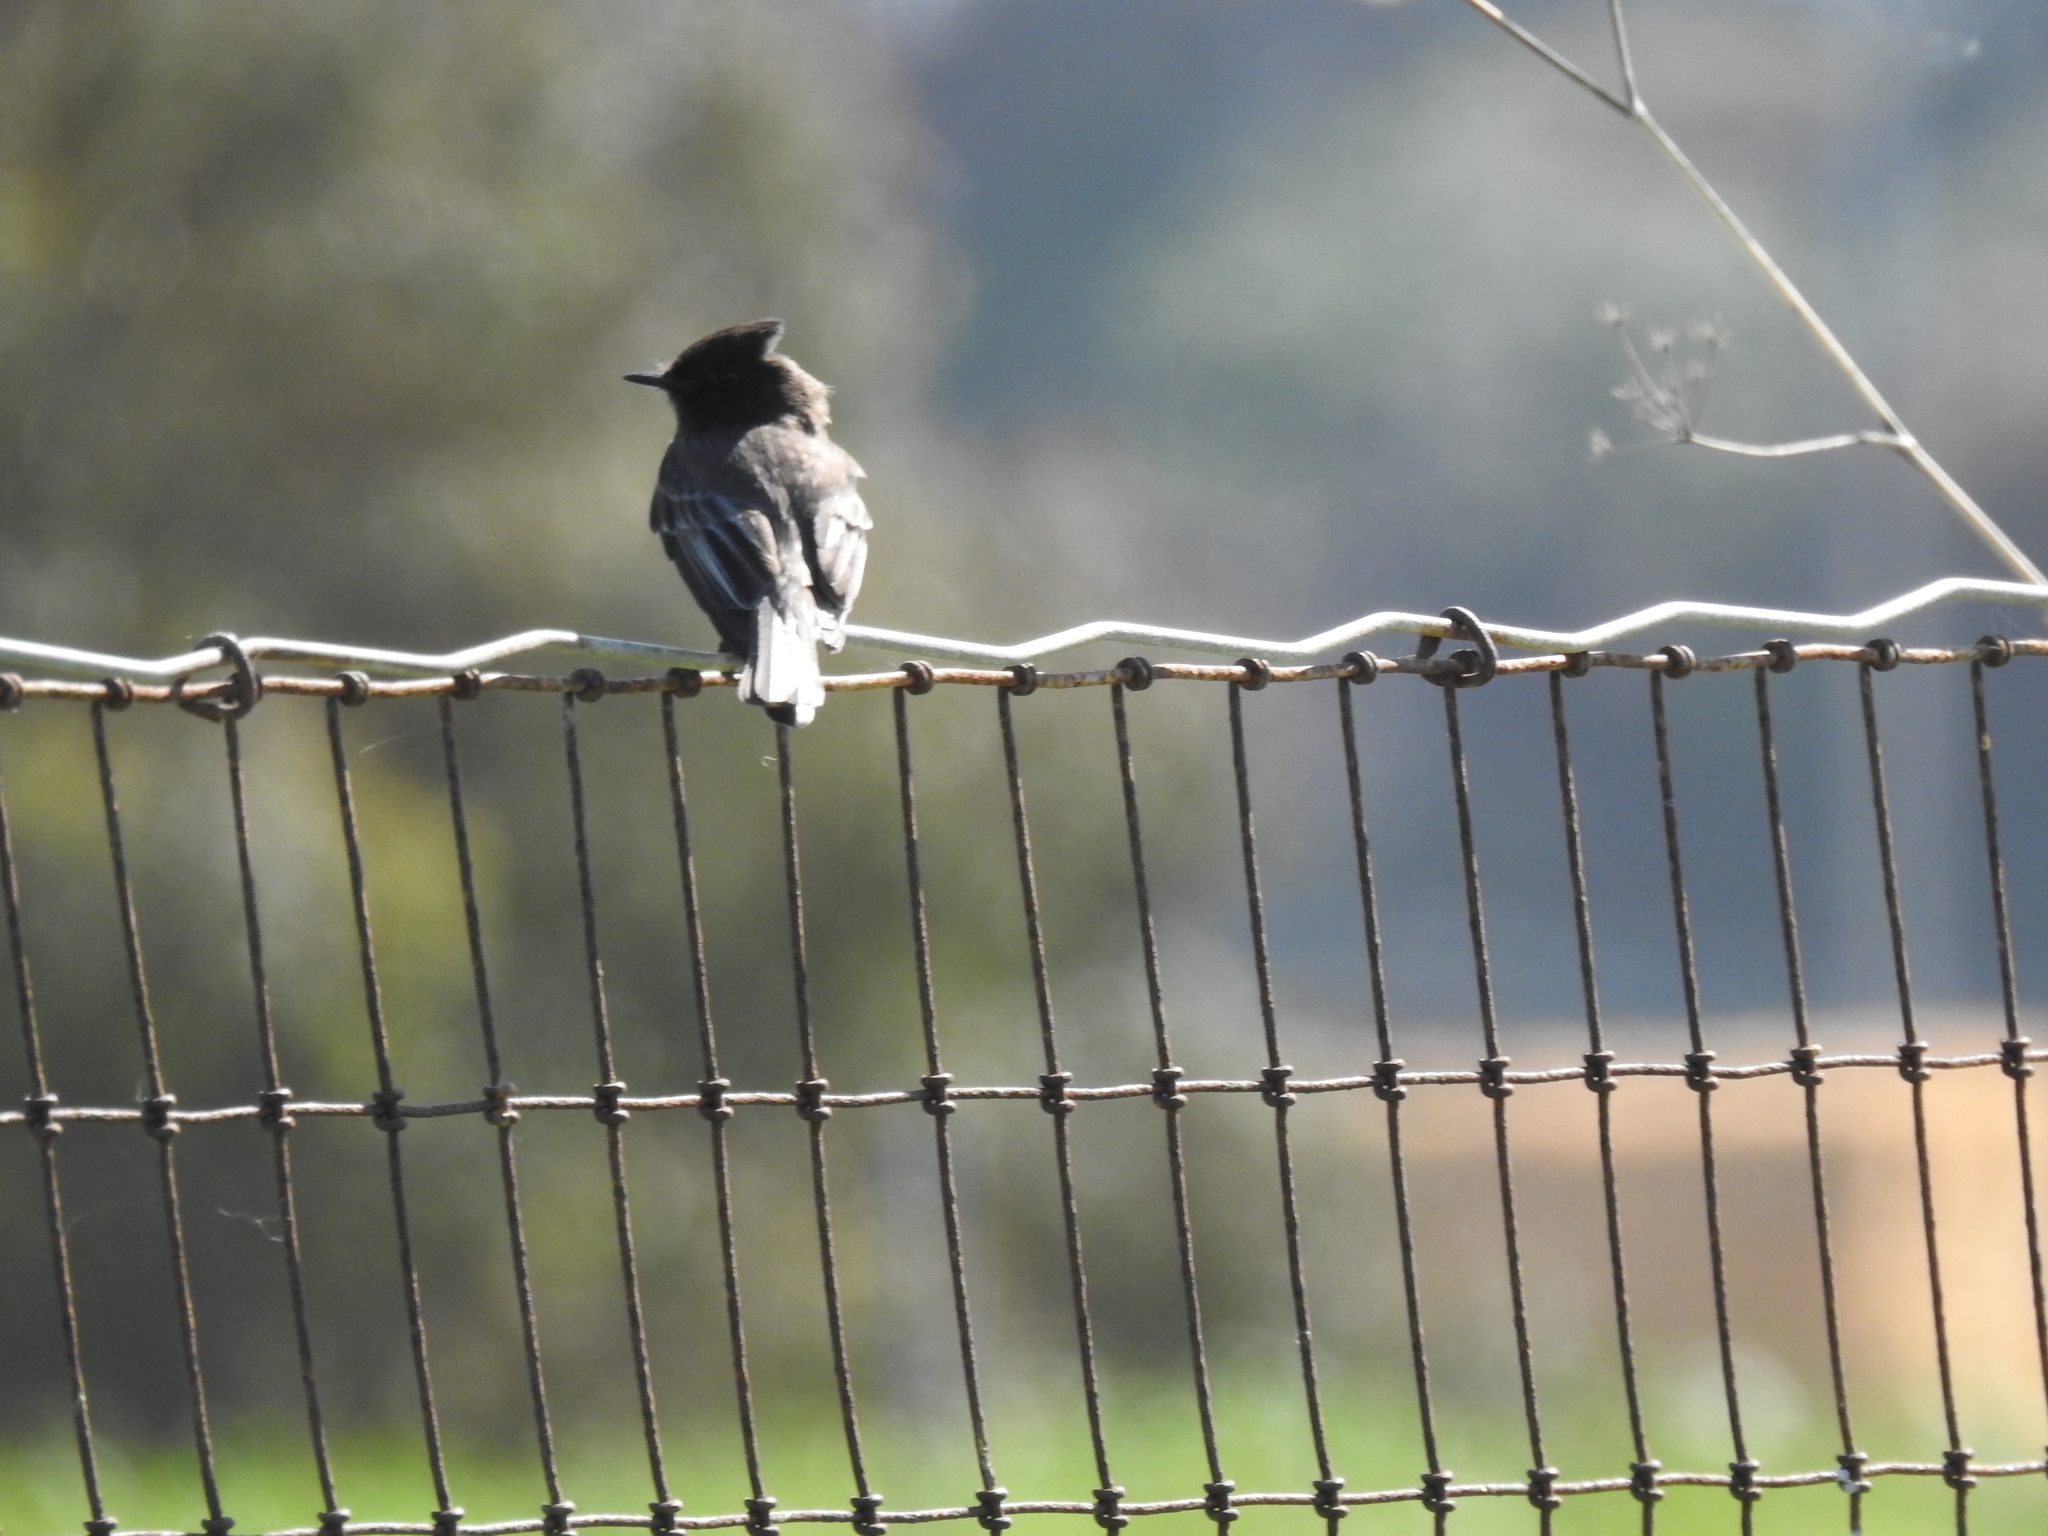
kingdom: Animalia
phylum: Chordata
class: Aves
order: Passeriformes
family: Tyrannidae
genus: Sayornis
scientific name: Sayornis nigricans
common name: Black phoebe
